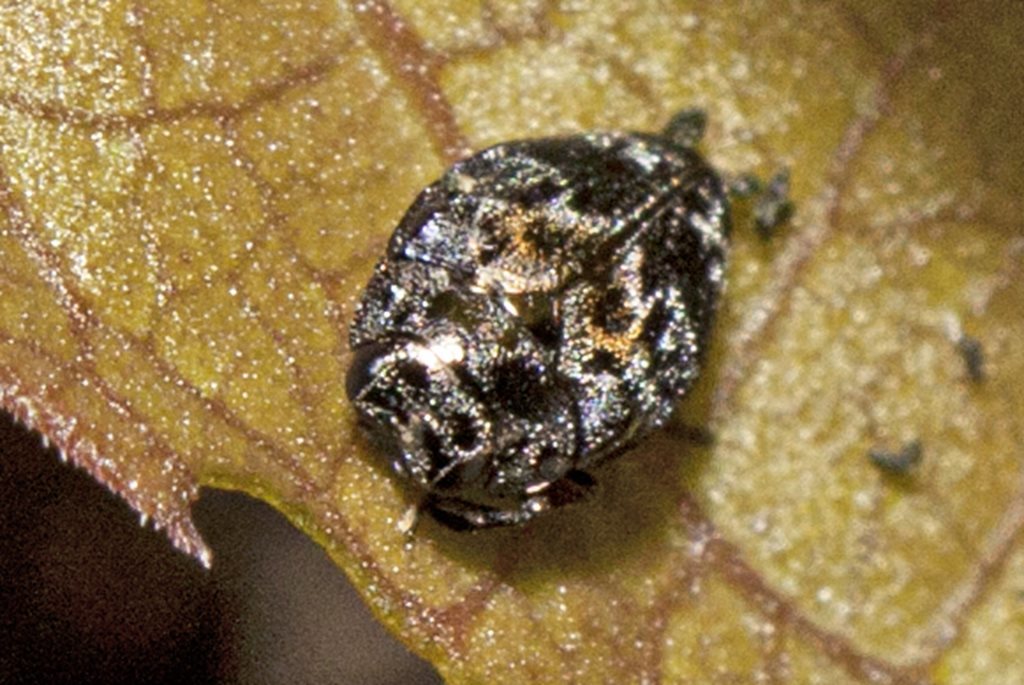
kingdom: Animalia
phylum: Arthropoda
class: Insecta
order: Coleoptera
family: Buprestidae
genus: Hylaeogena
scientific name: Hylaeogena
